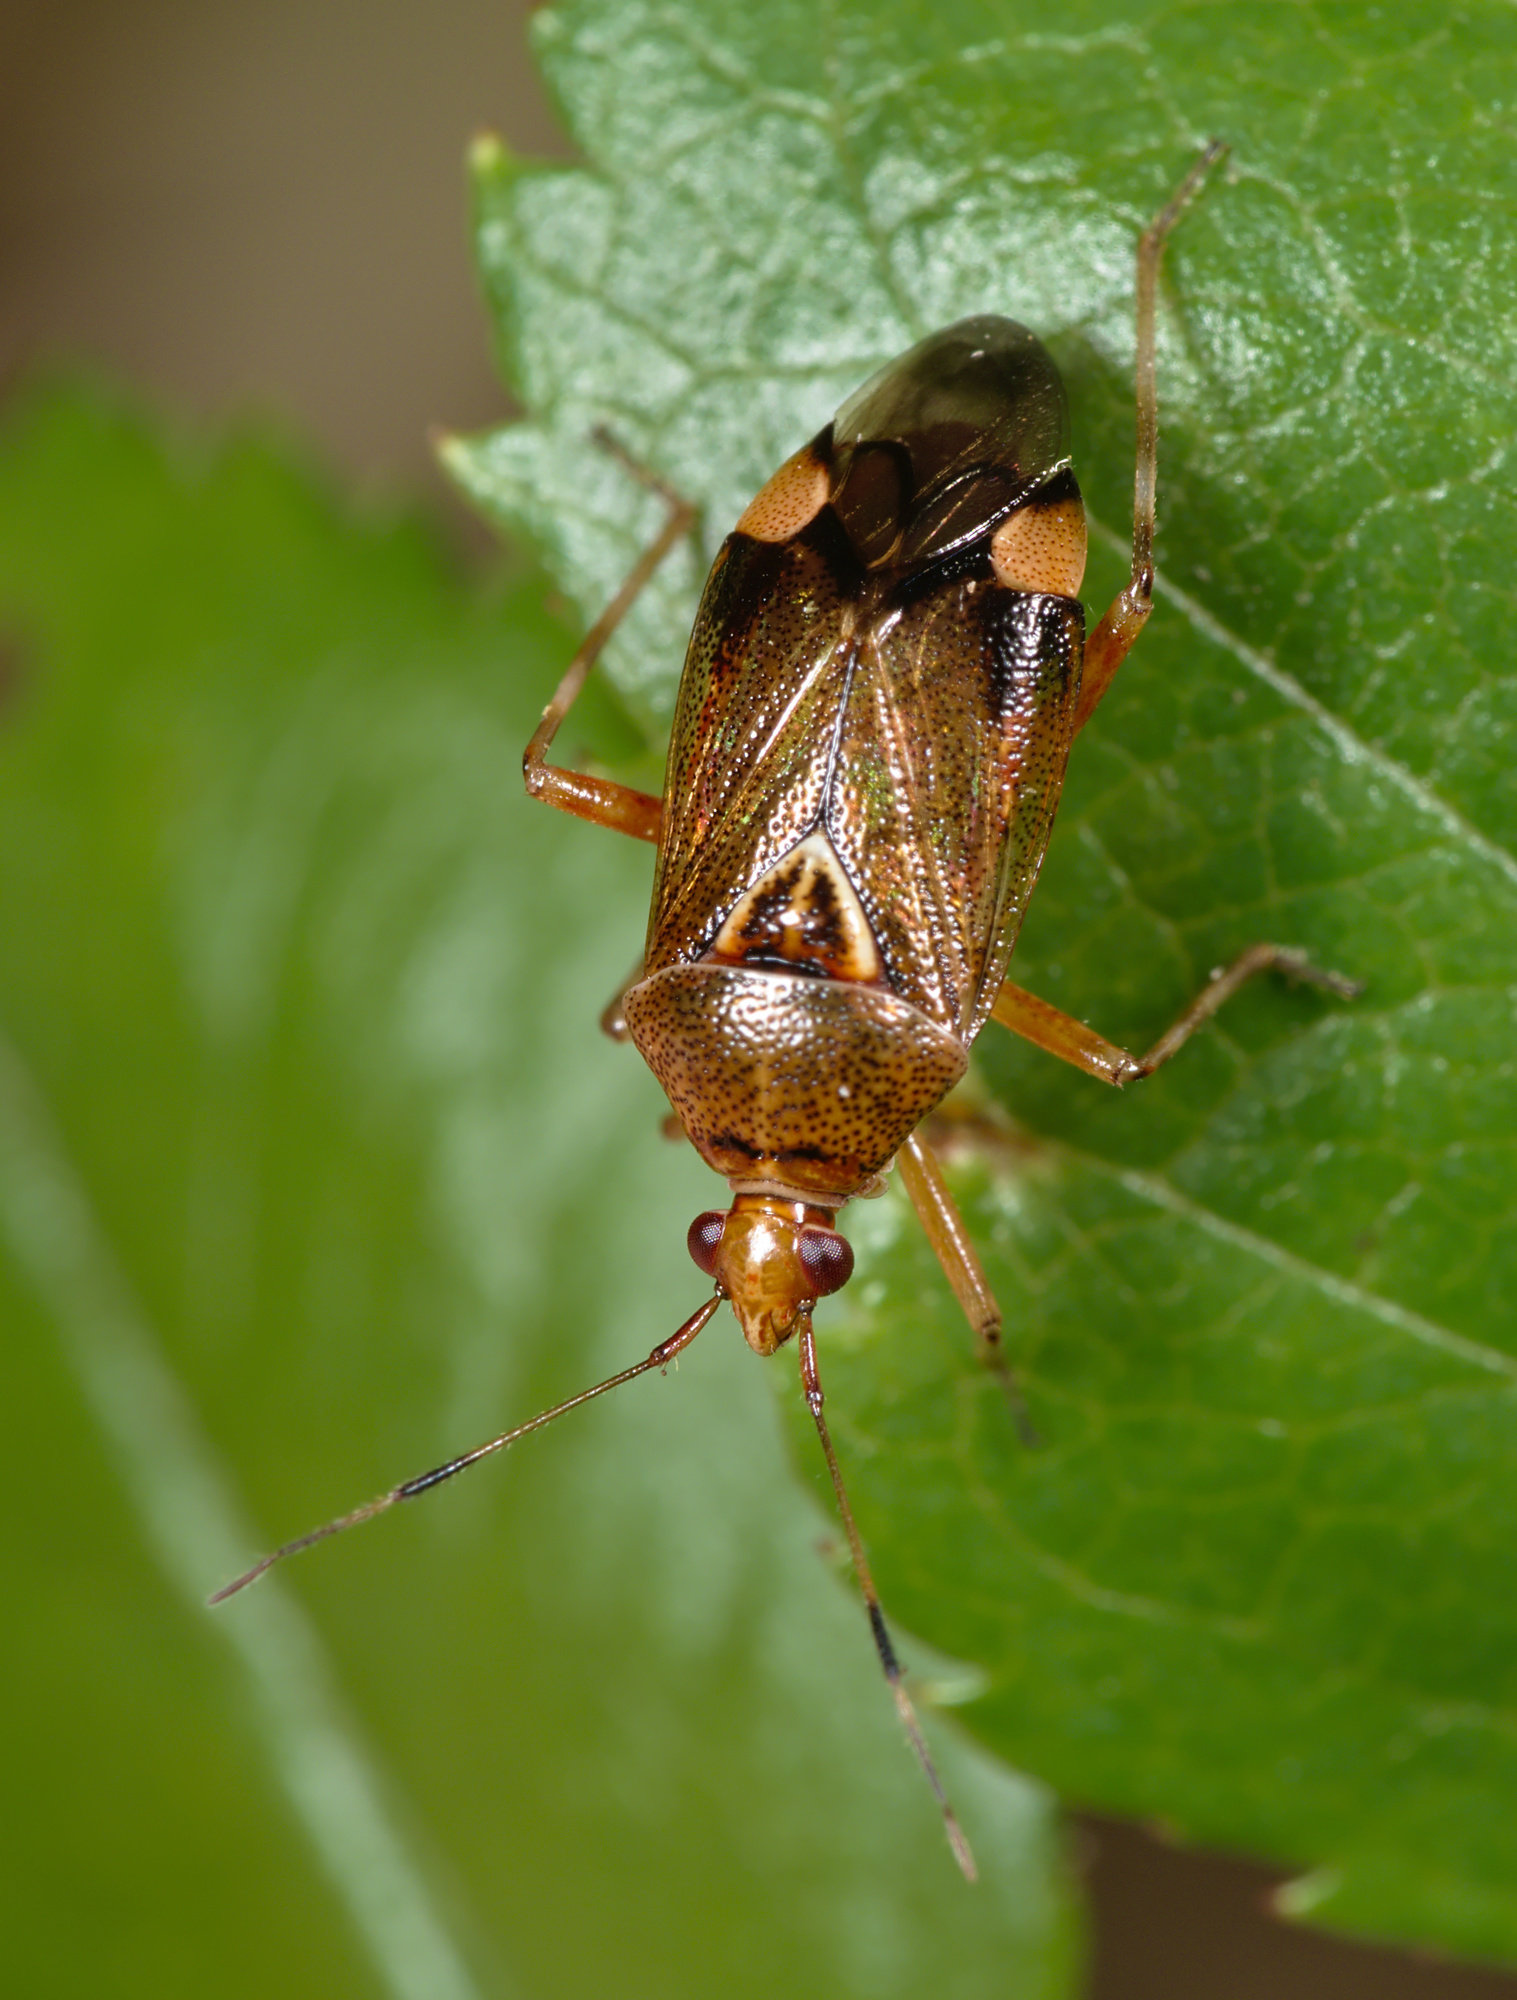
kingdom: Animalia
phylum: Arthropoda
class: Insecta
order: Hemiptera
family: Miridae
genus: Deraeocoris
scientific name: Deraeocoris flavilinea
